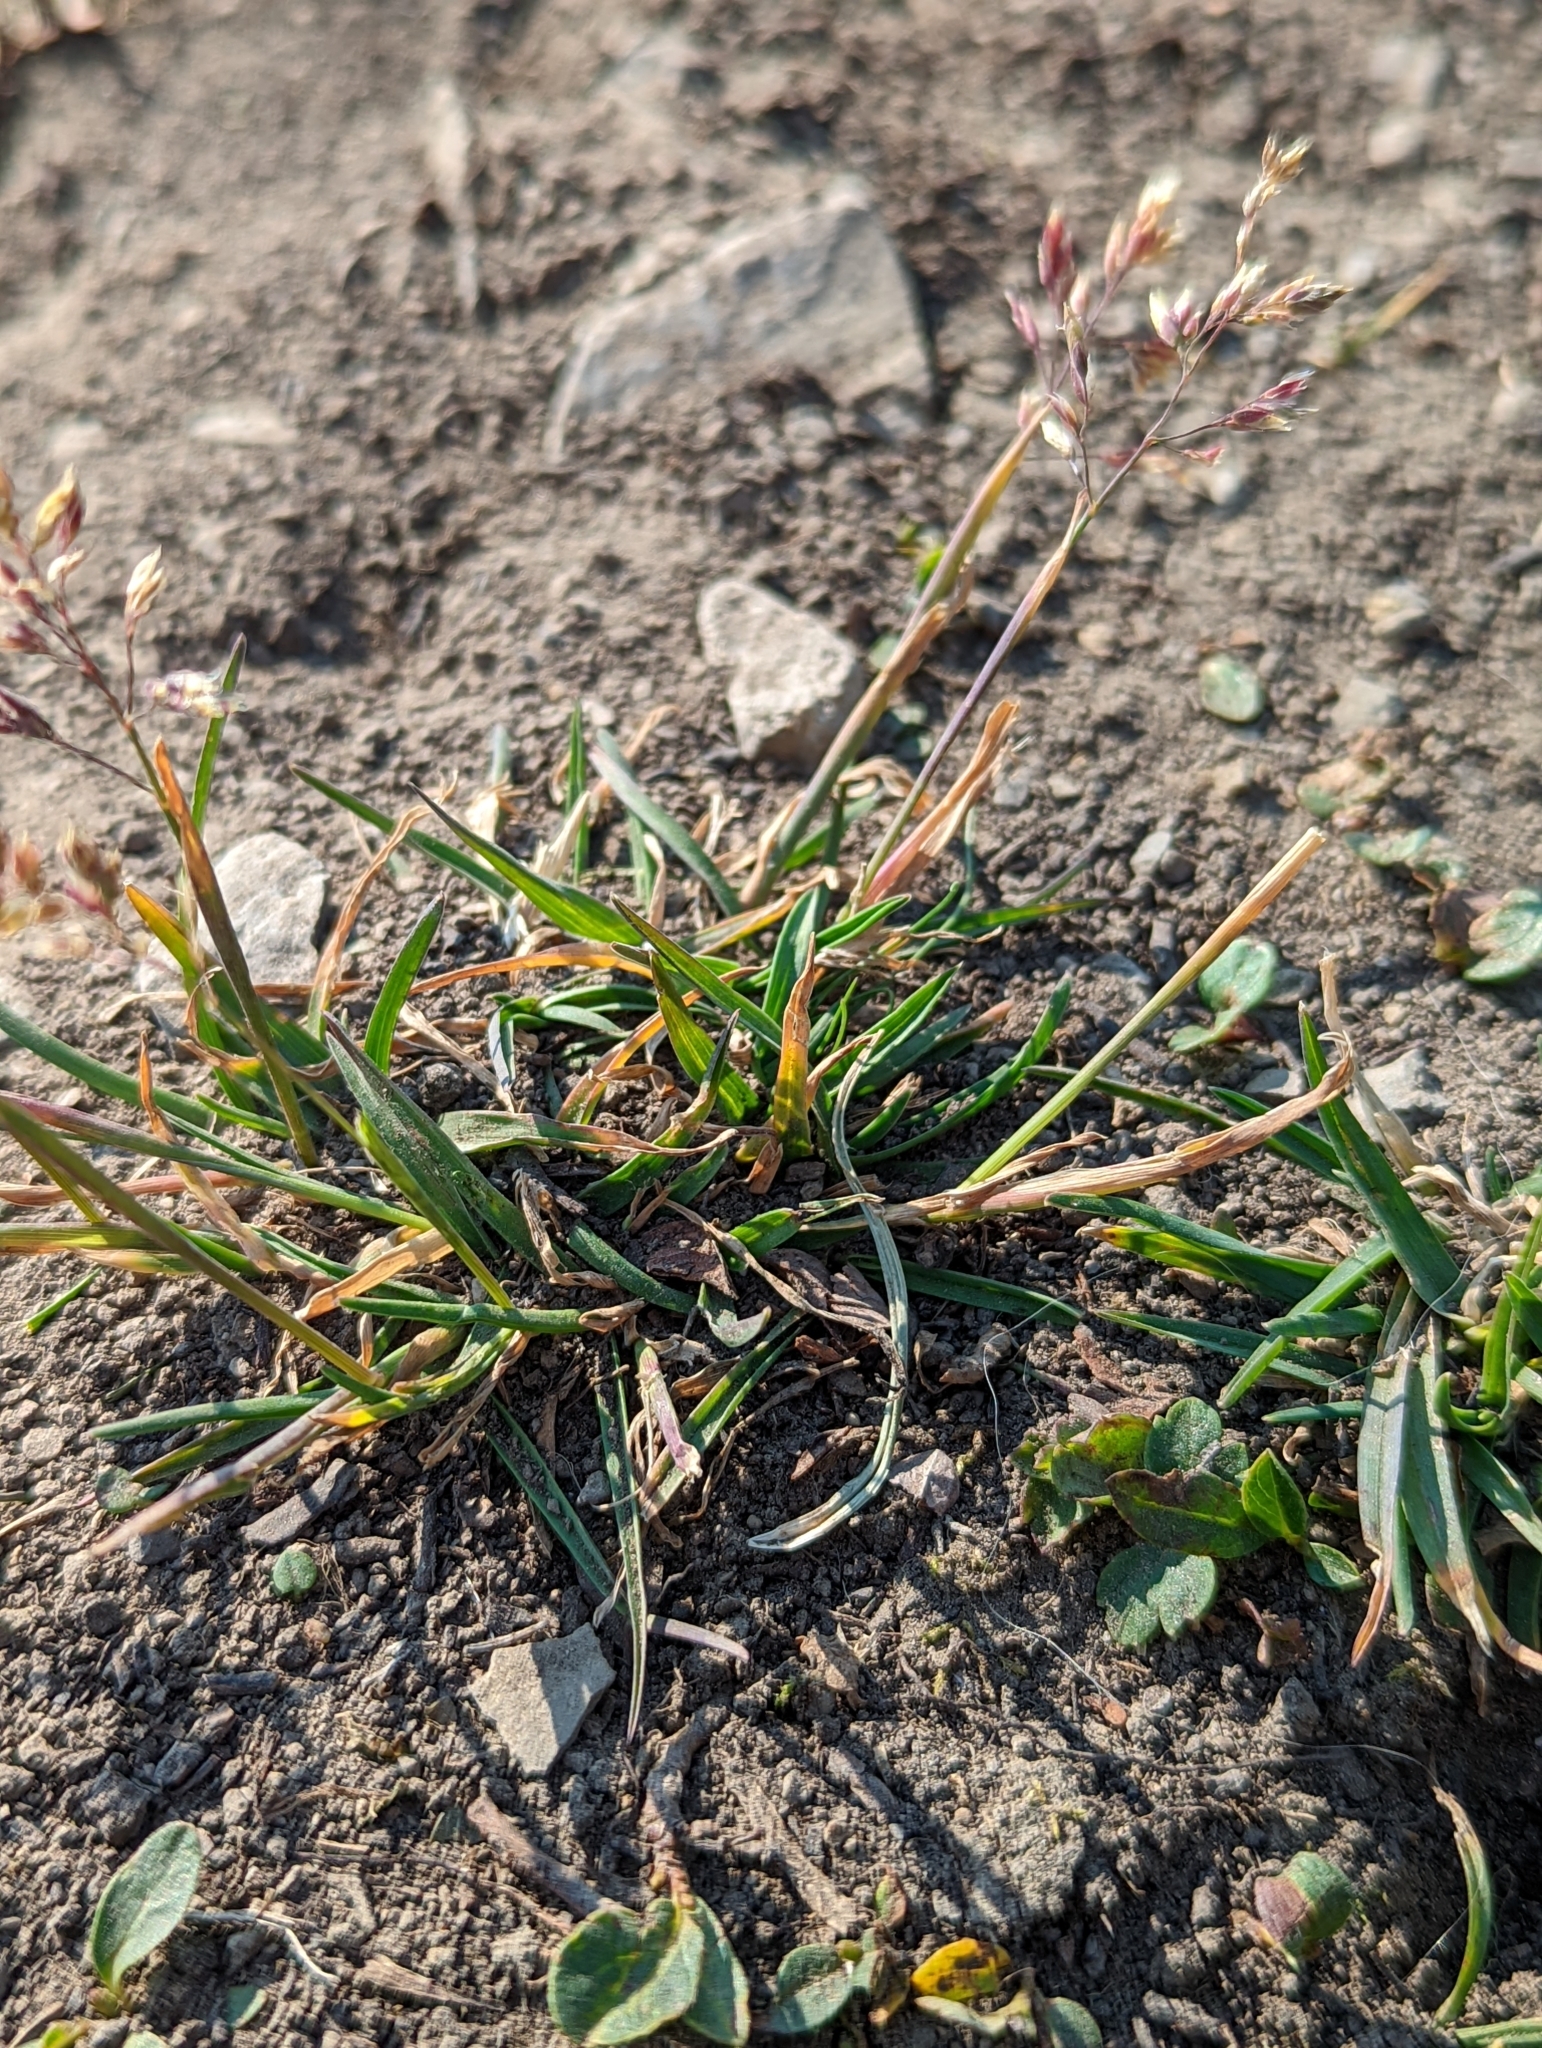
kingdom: Plantae
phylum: Tracheophyta
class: Liliopsida
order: Poales
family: Poaceae
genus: Poa
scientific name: Poa alpina
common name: Alpine bluegrass
